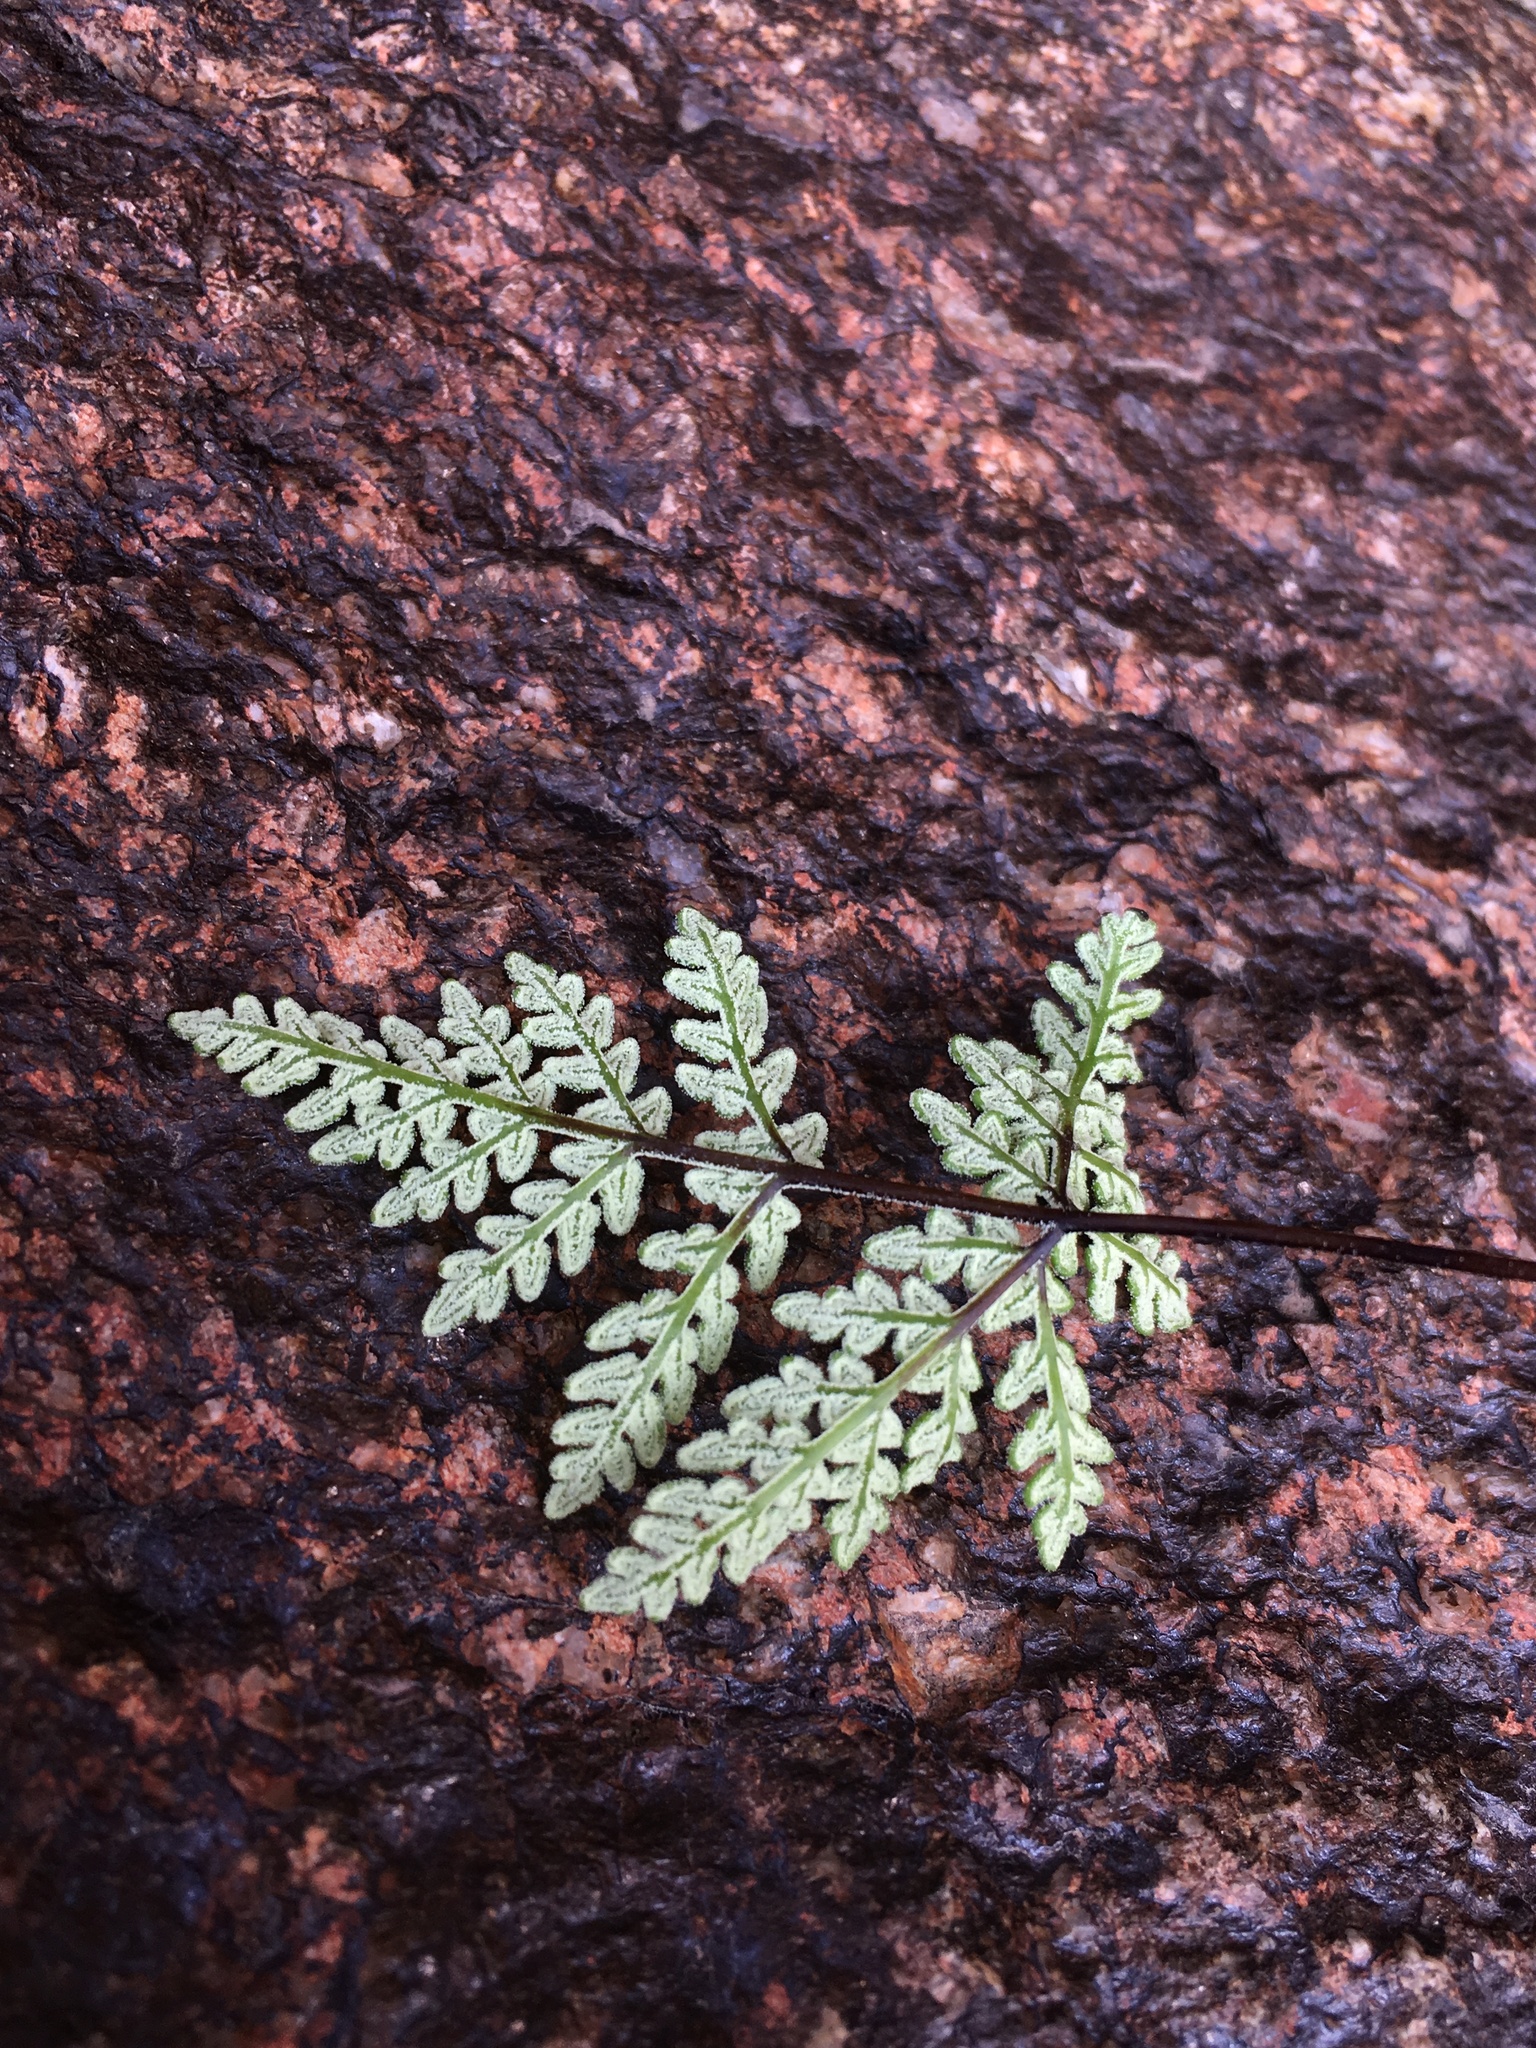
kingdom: Plantae
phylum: Tracheophyta
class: Polypodiopsida
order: Polypodiales
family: Pteridaceae
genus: Notholaena
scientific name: Notholaena californica
